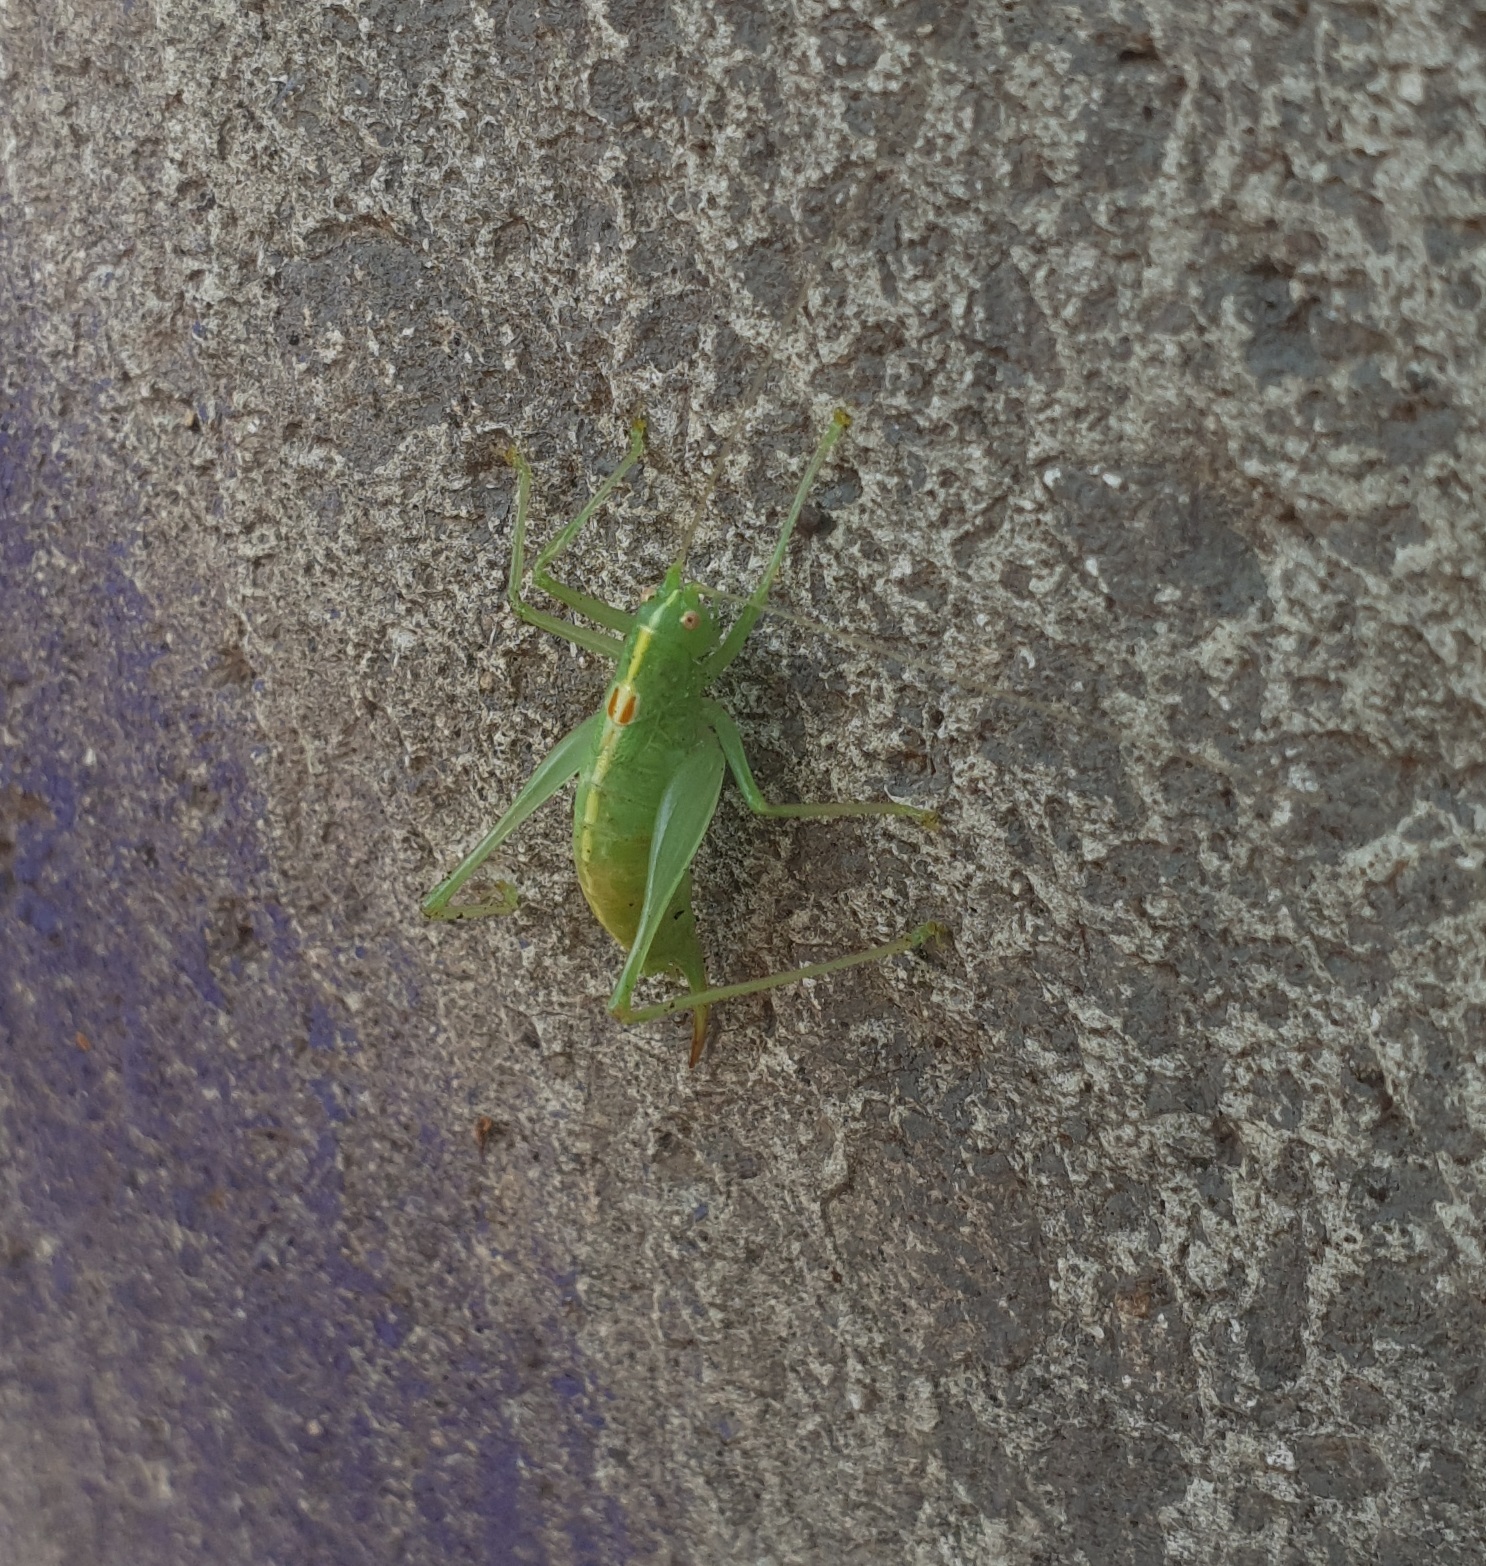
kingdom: Animalia
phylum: Arthropoda
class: Insecta
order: Orthoptera
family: Tettigoniidae
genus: Meconema
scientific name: Meconema meridionale
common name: Southern oak bush-cricket
